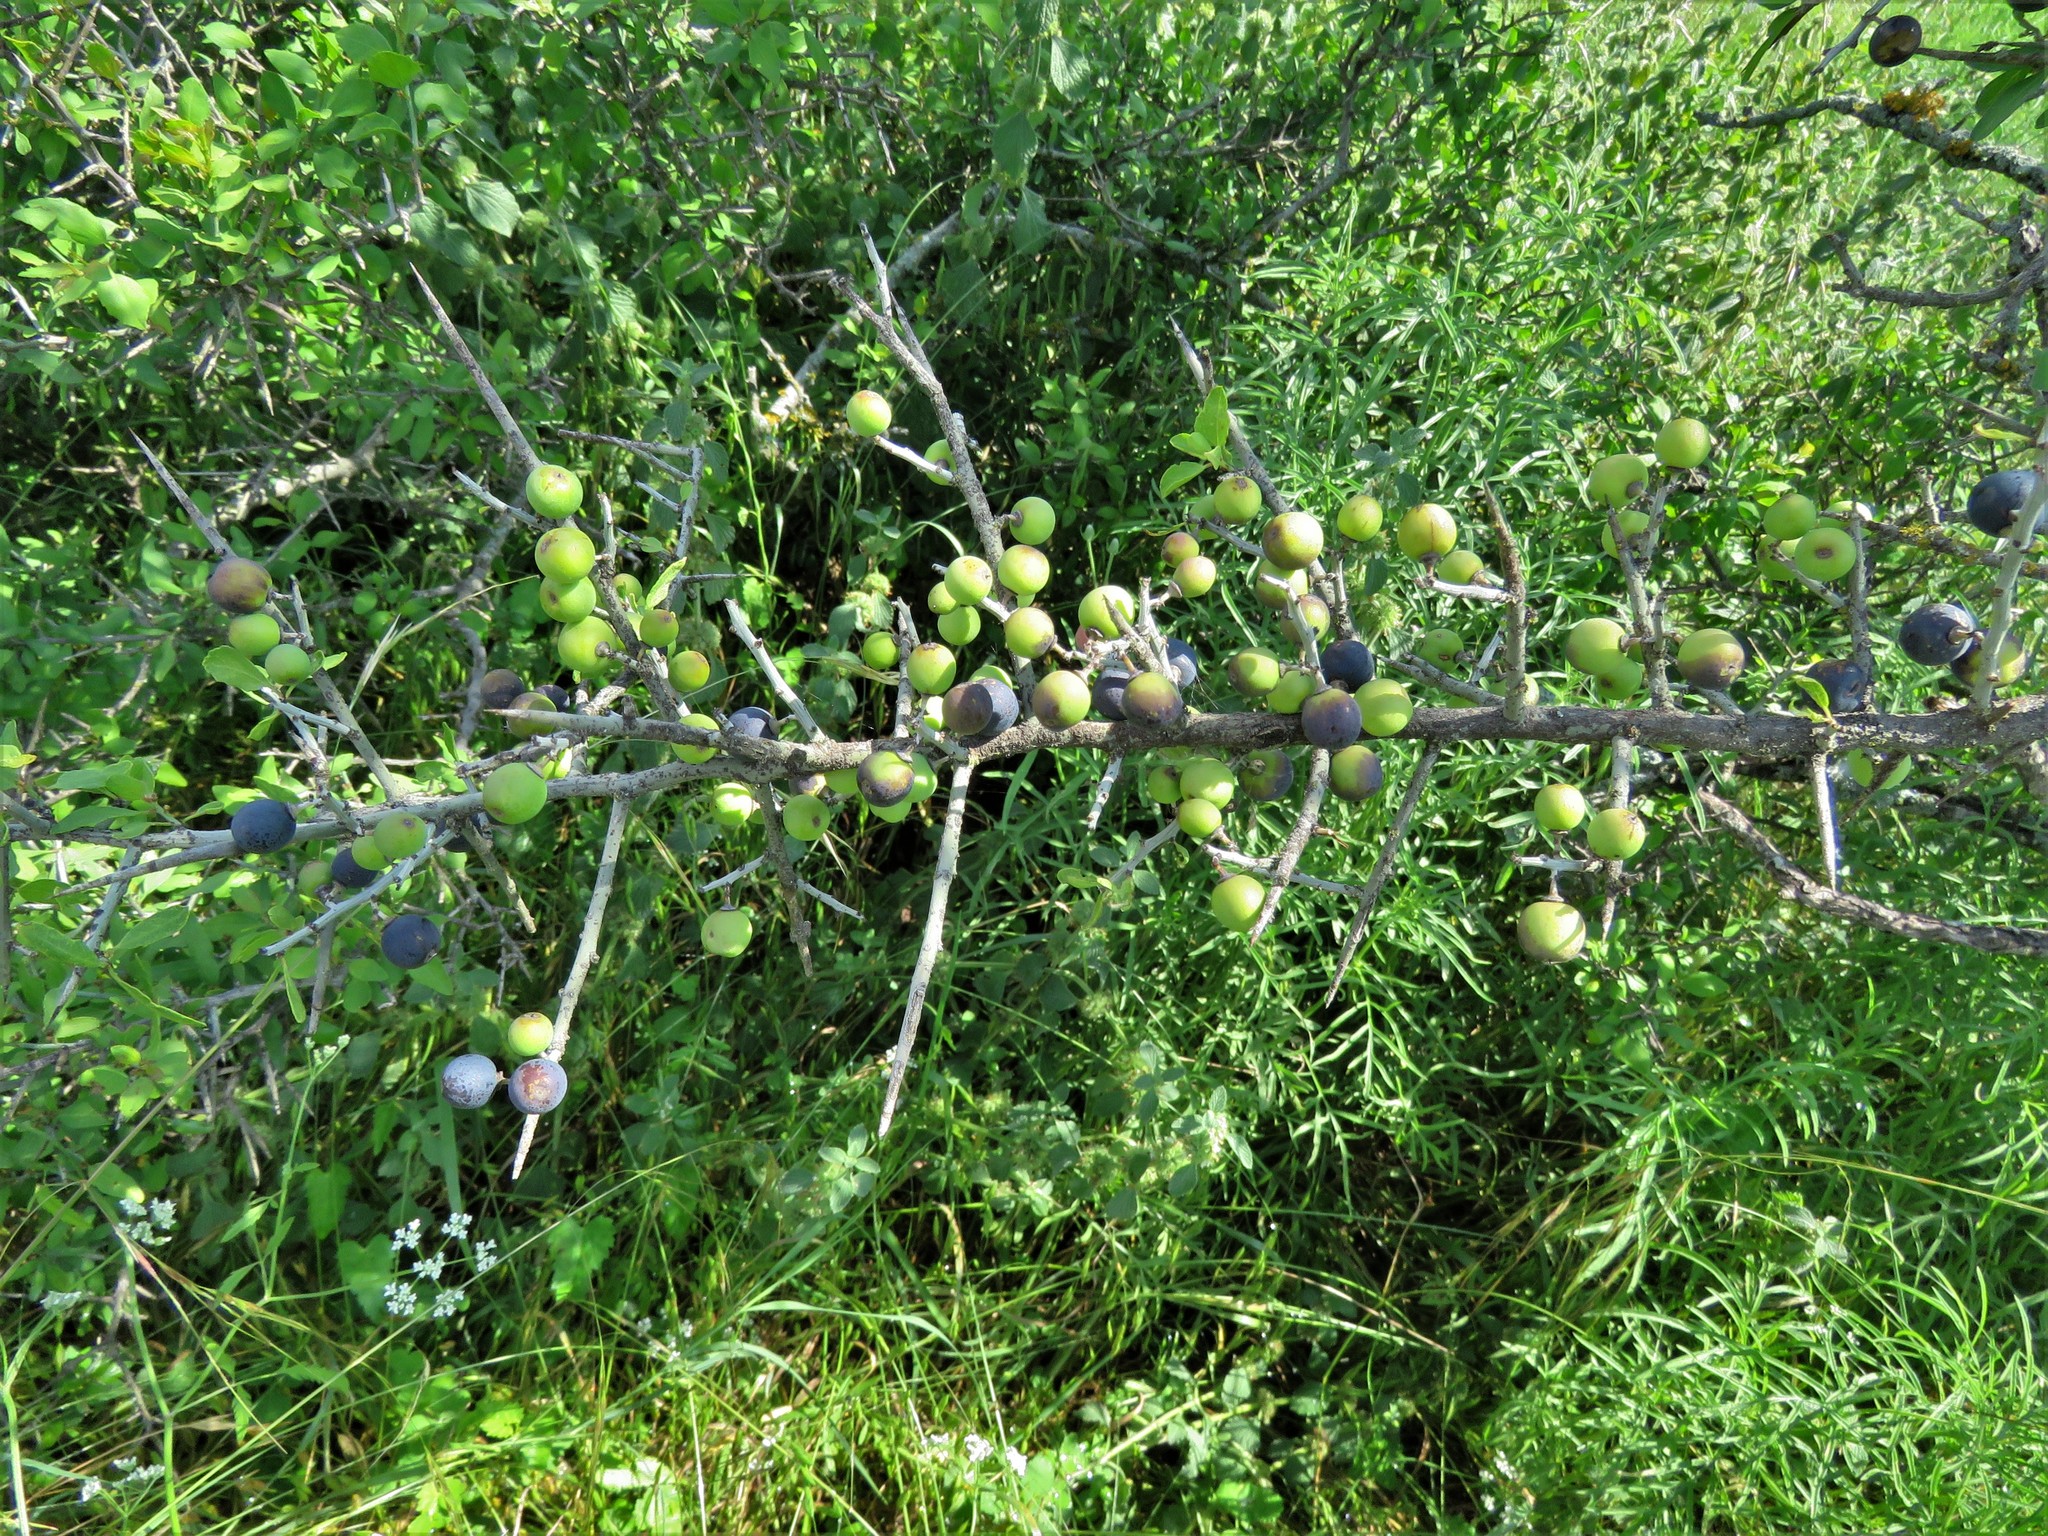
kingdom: Plantae
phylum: Tracheophyta
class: Magnoliopsida
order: Rosales
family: Rhamnaceae
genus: Sarcomphalus
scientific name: Sarcomphalus obtusifolius
